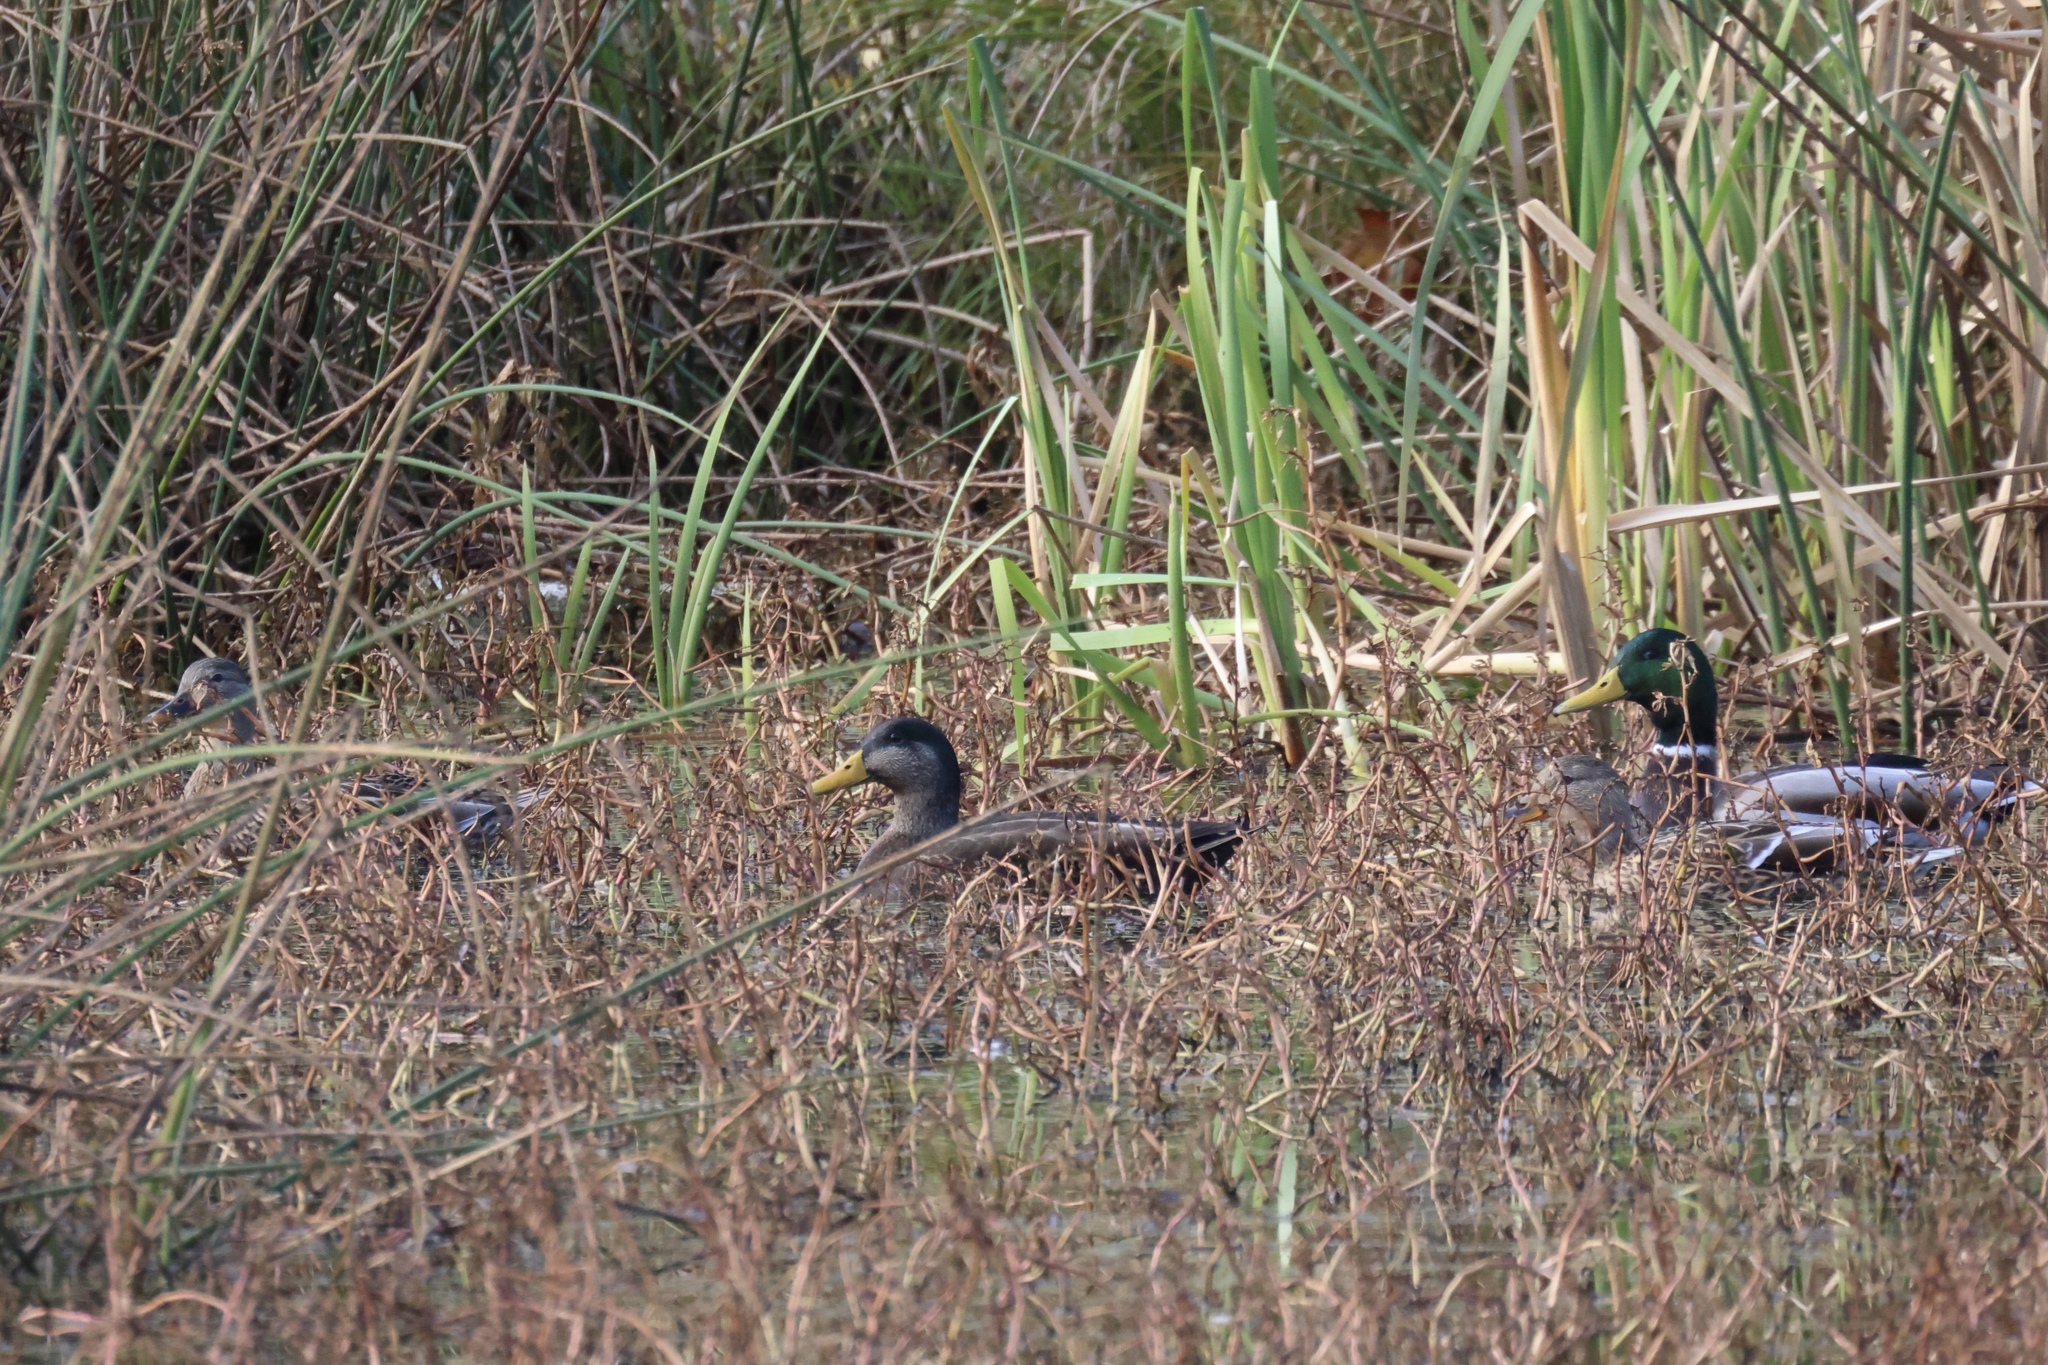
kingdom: Animalia
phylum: Chordata
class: Aves
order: Anseriformes
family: Anatidae
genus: Anas
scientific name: Anas platyrhynchos
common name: Mallard
